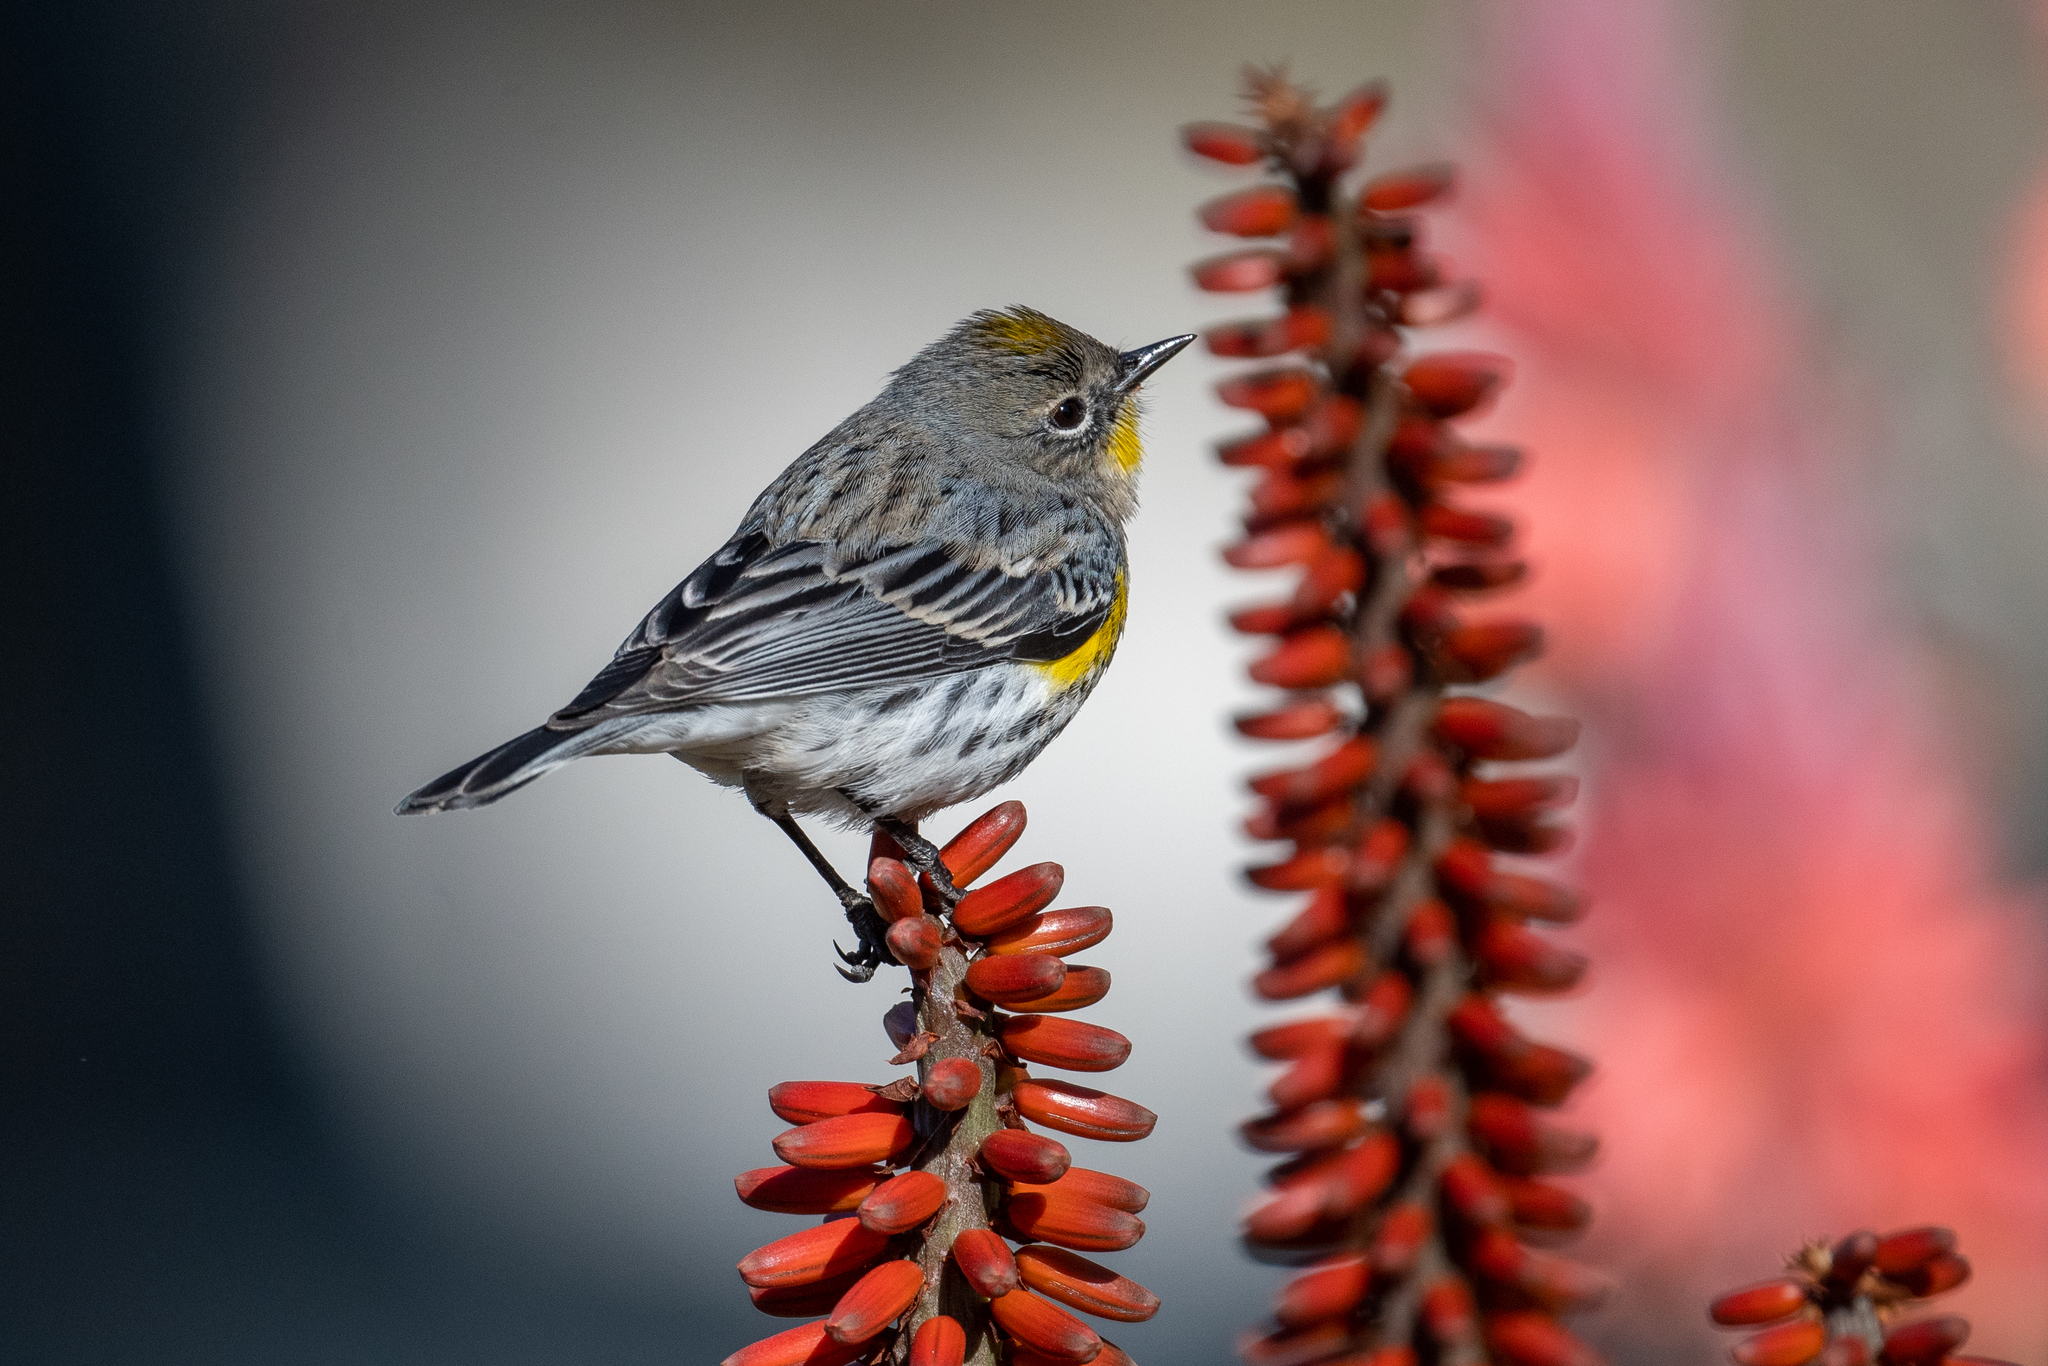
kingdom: Animalia
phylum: Chordata
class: Aves
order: Passeriformes
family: Parulidae
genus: Setophaga
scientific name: Setophaga coronata
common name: Myrtle warbler
